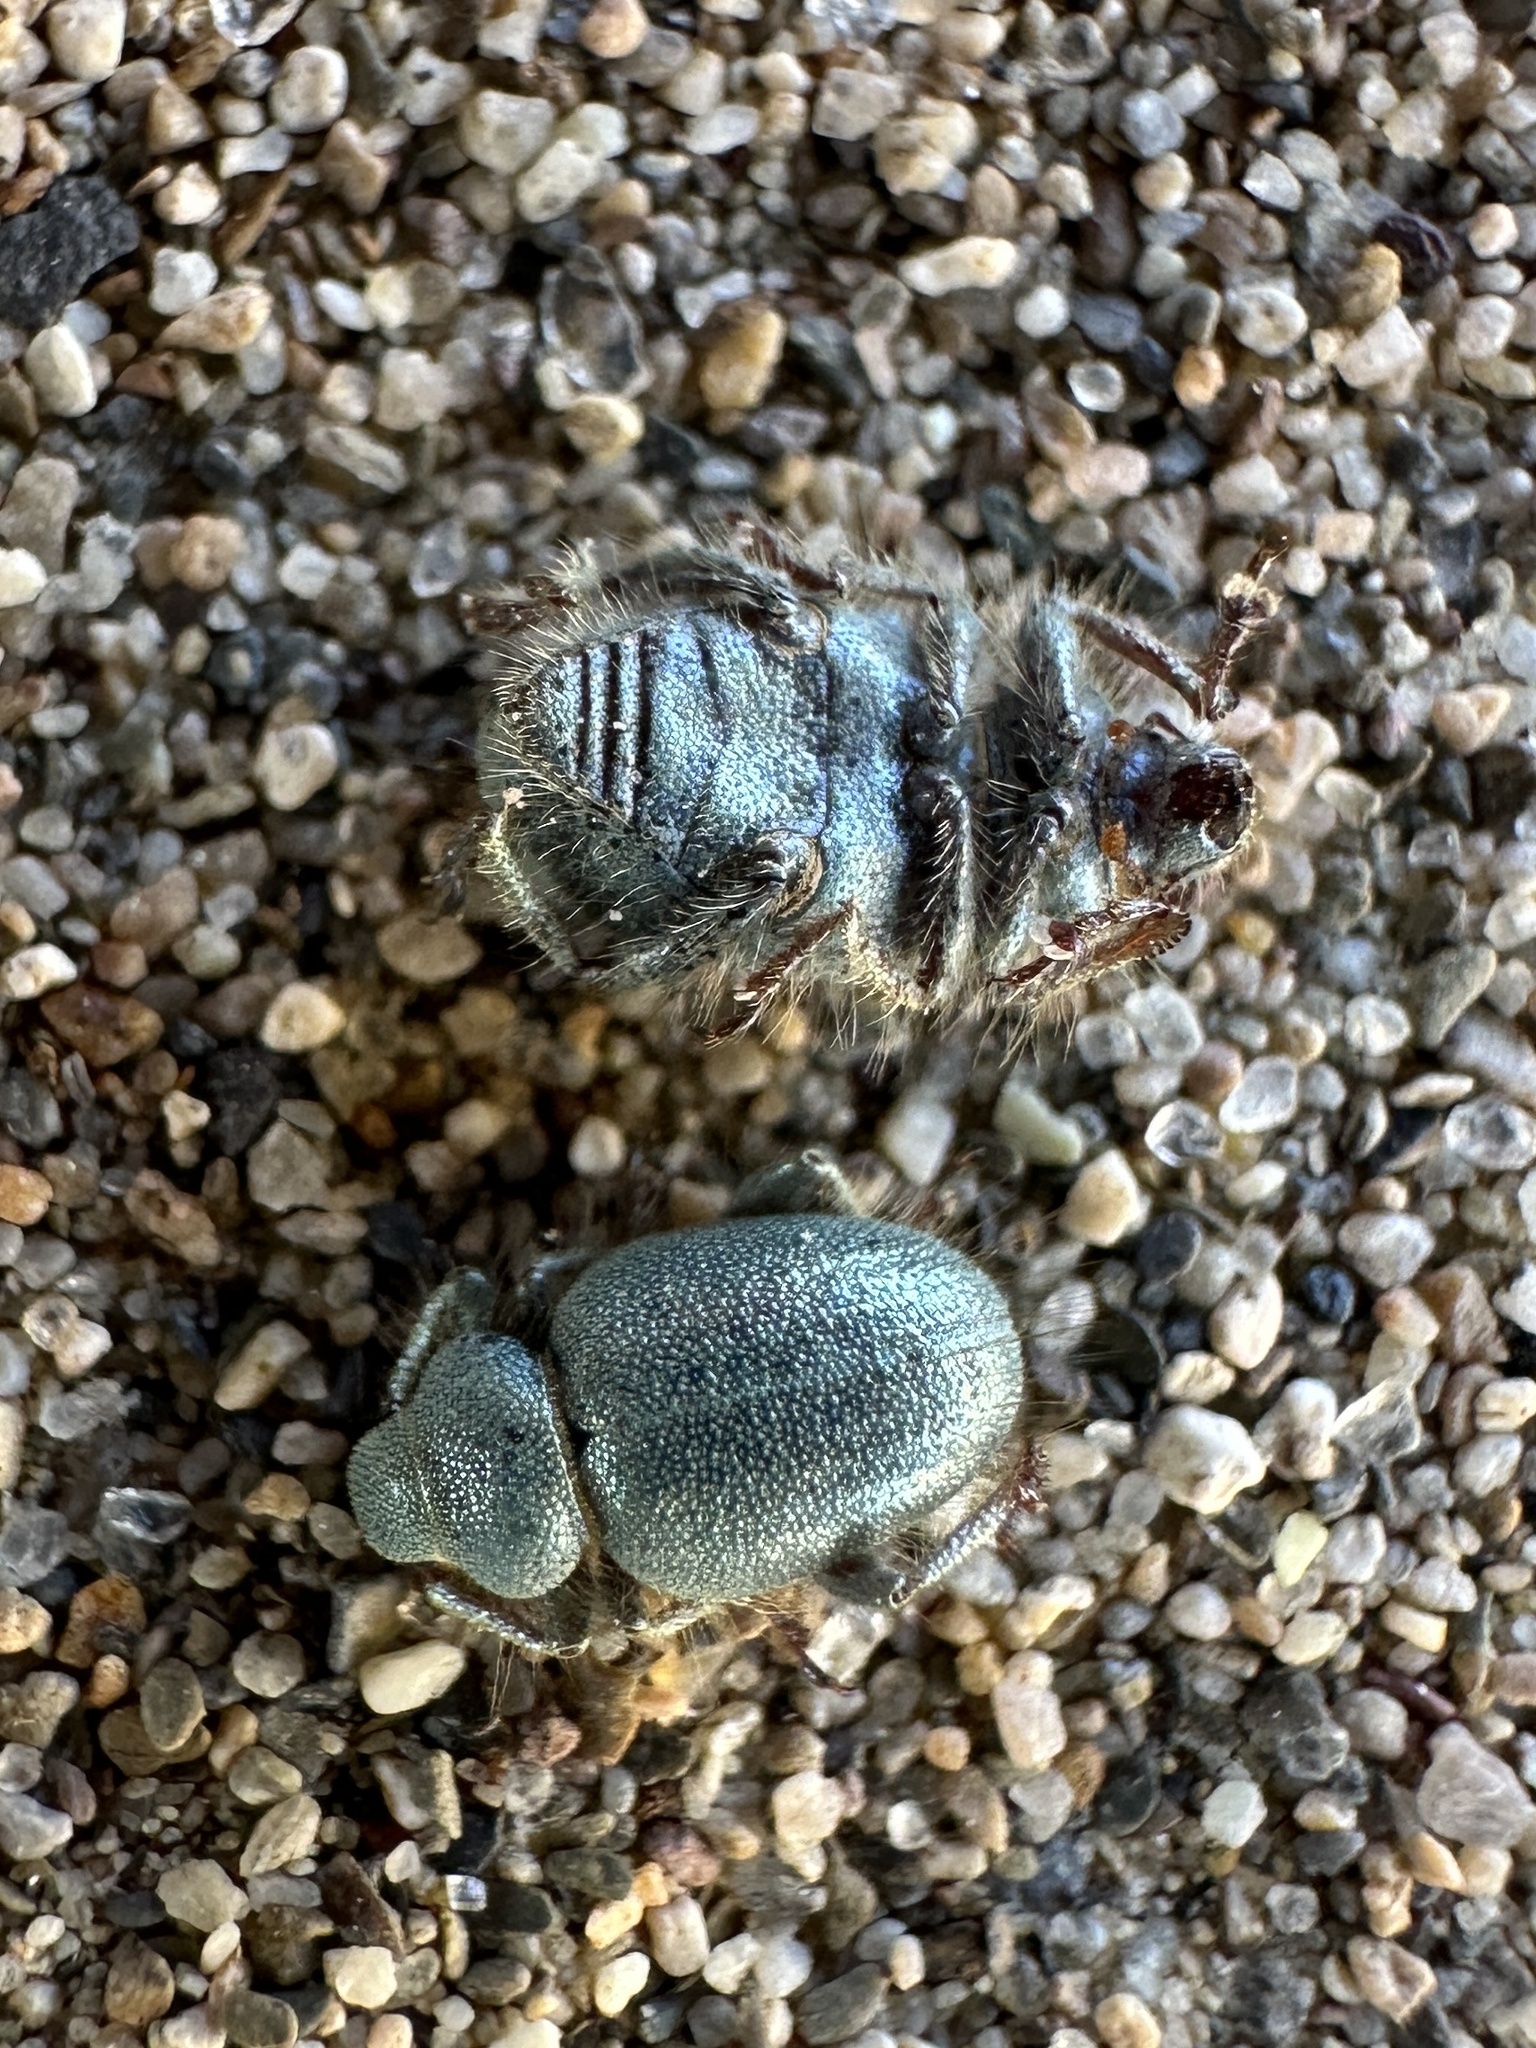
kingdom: Animalia
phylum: Arthropoda
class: Insecta
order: Coleoptera
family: Curculionidae
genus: Miloderes
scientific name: Miloderes ubehebensis
